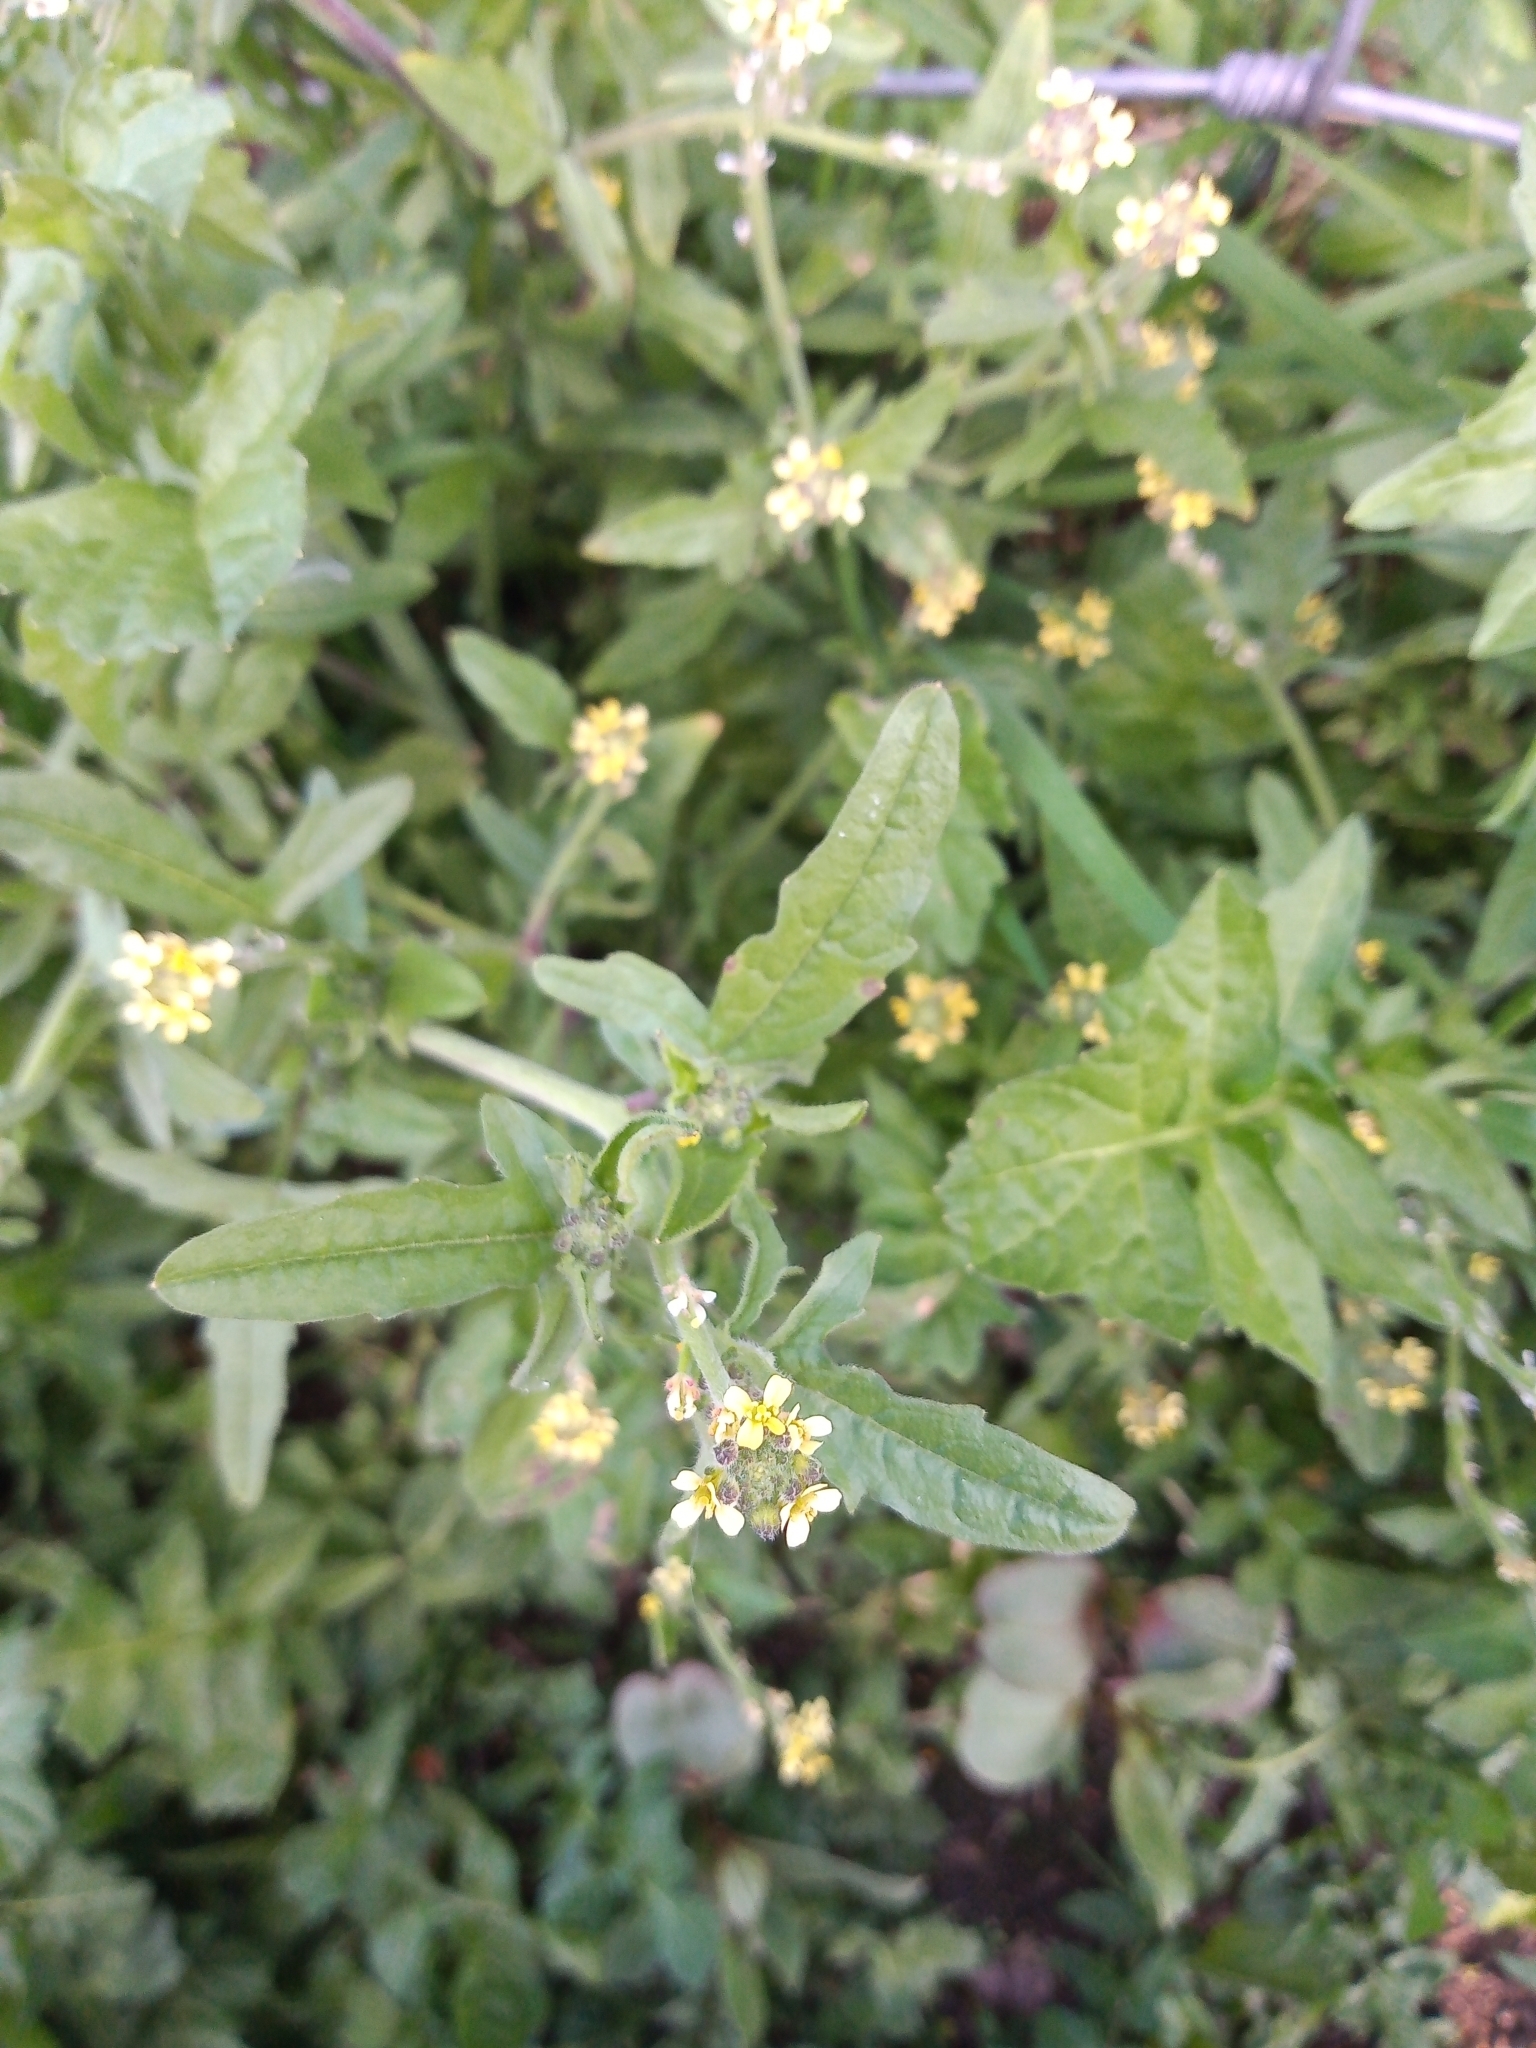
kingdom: Plantae
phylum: Tracheophyta
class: Magnoliopsida
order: Brassicales
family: Brassicaceae
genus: Sisymbrium
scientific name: Sisymbrium officinale
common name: Hedge mustard
